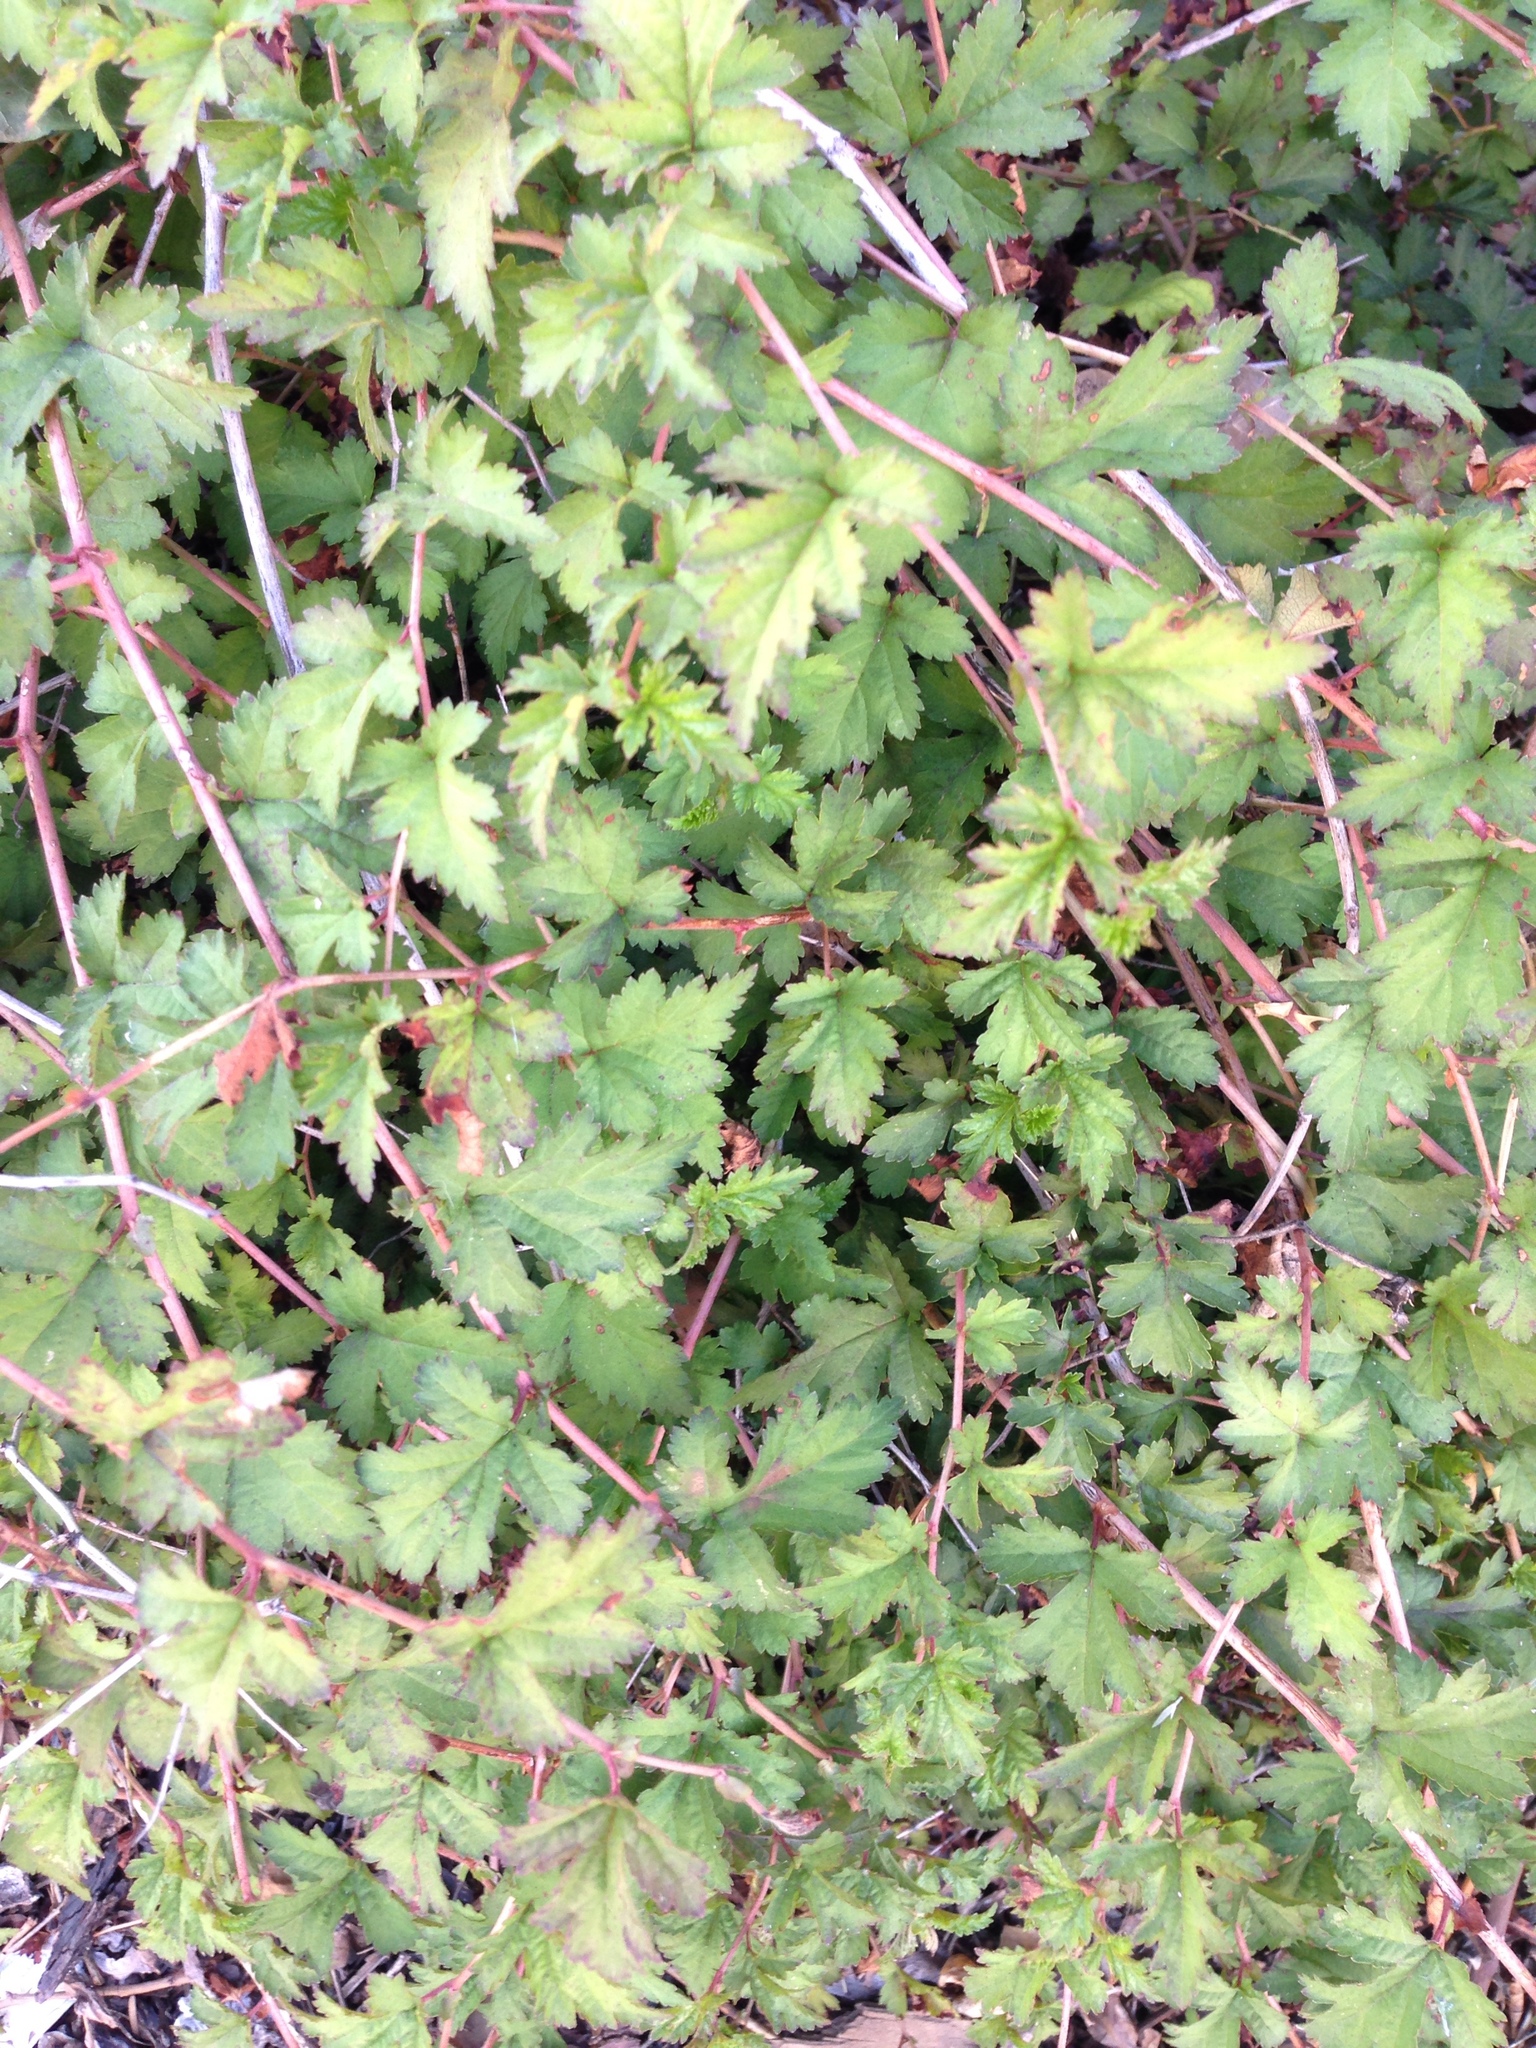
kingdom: Plantae
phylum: Tracheophyta
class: Magnoliopsida
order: Rosales
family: Rosaceae
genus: Neillia
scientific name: Neillia incisa
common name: Laceshrub
